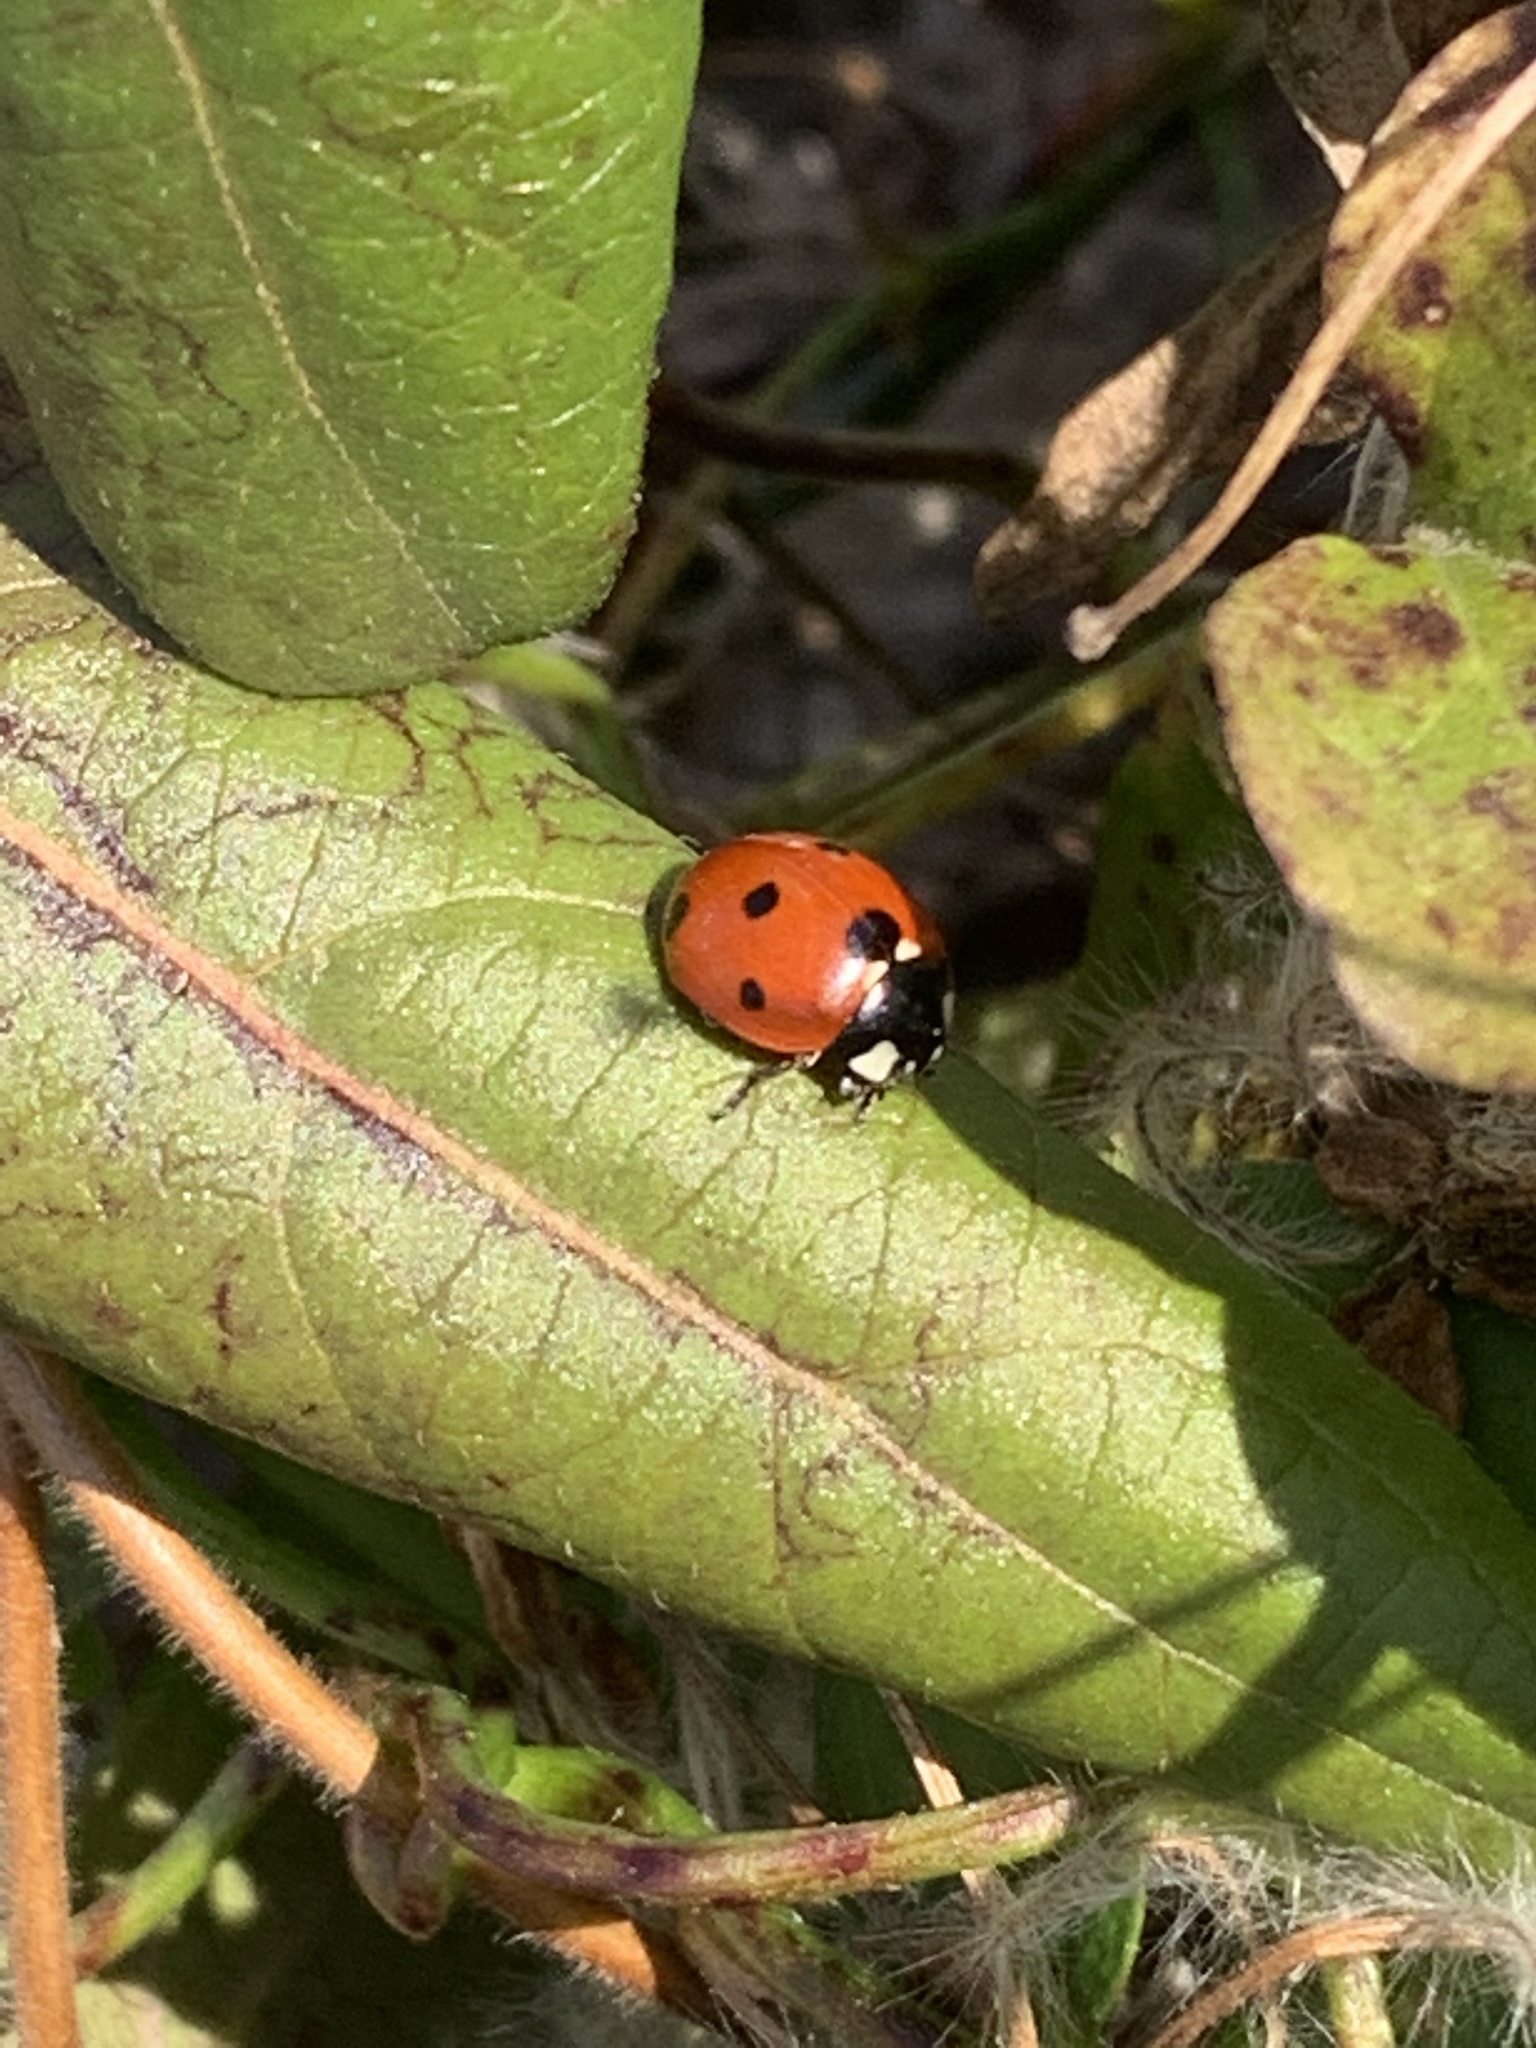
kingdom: Animalia
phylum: Arthropoda
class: Insecta
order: Coleoptera
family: Coccinellidae
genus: Coccinella
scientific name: Coccinella septempunctata
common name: Sevenspotted lady beetle
